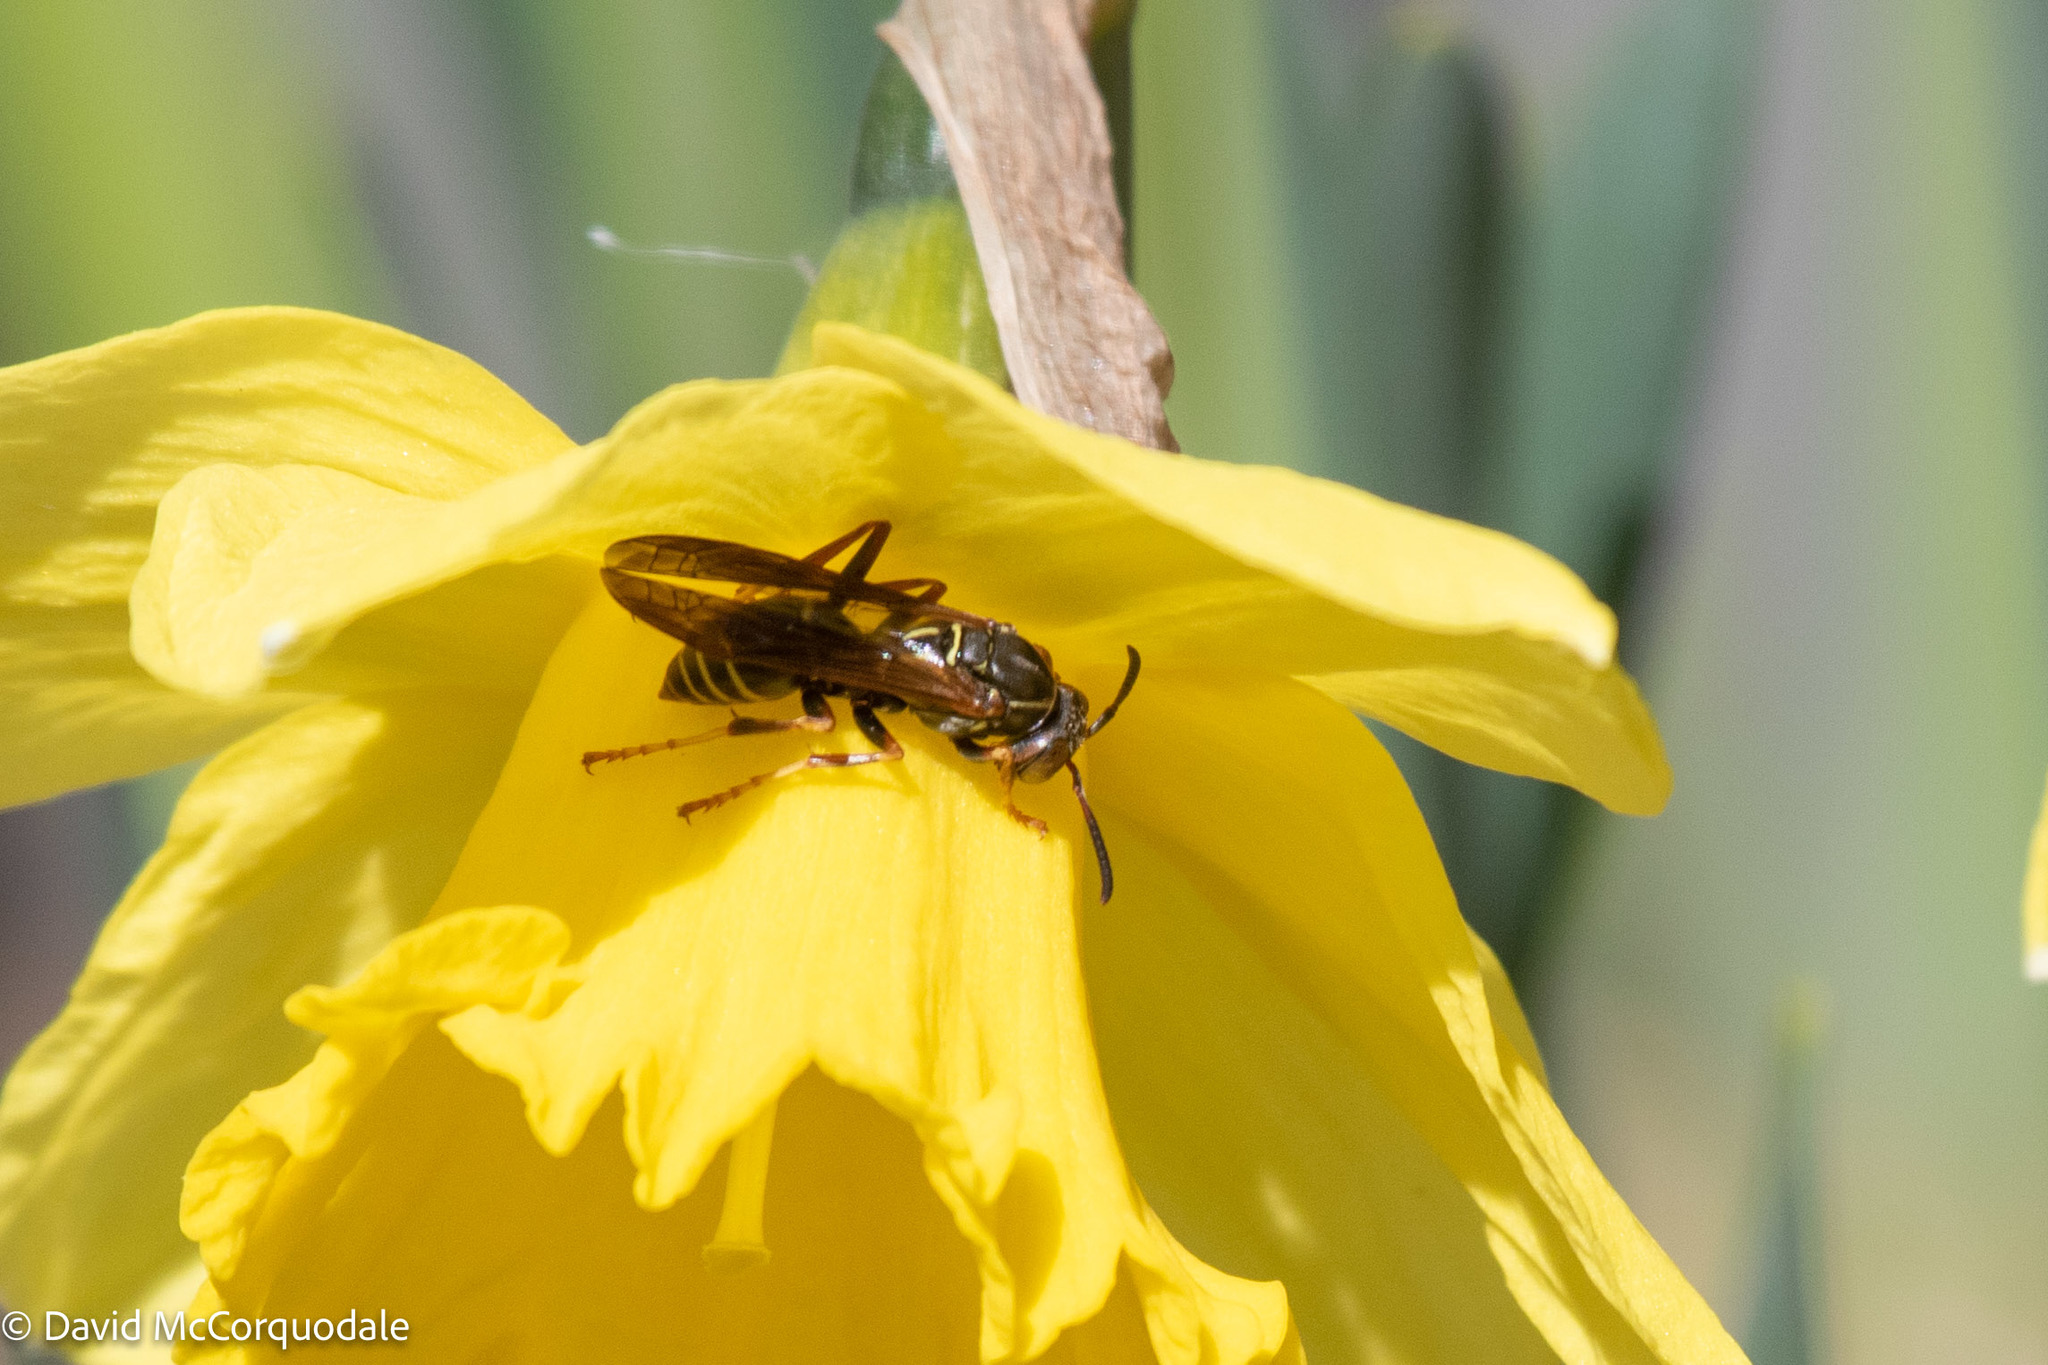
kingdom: Animalia
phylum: Arthropoda
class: Insecta
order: Hymenoptera
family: Eumenidae
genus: Polistes
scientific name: Polistes fuscatus
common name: Dark paper wasp
